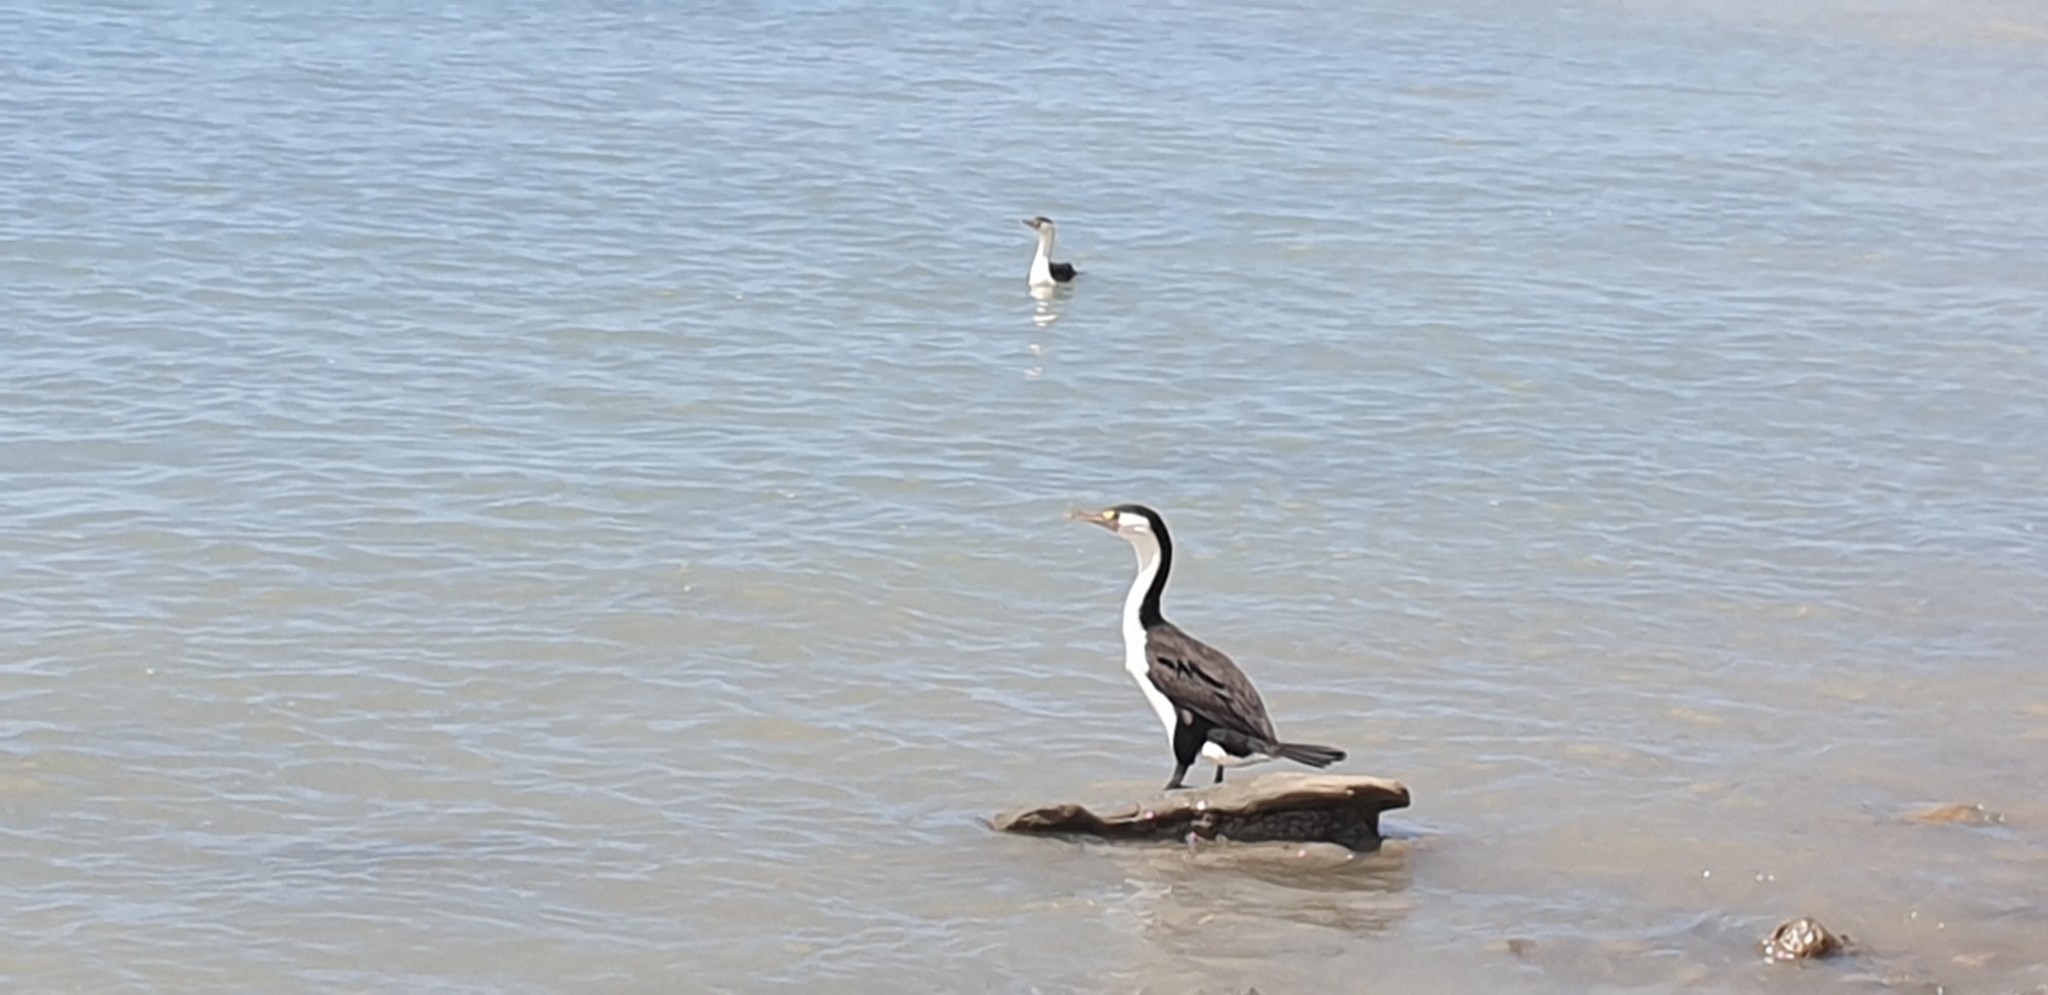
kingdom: Animalia
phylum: Chordata
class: Aves
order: Suliformes
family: Phalacrocoracidae
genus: Phalacrocorax
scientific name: Phalacrocorax varius
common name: Pied cormorant
